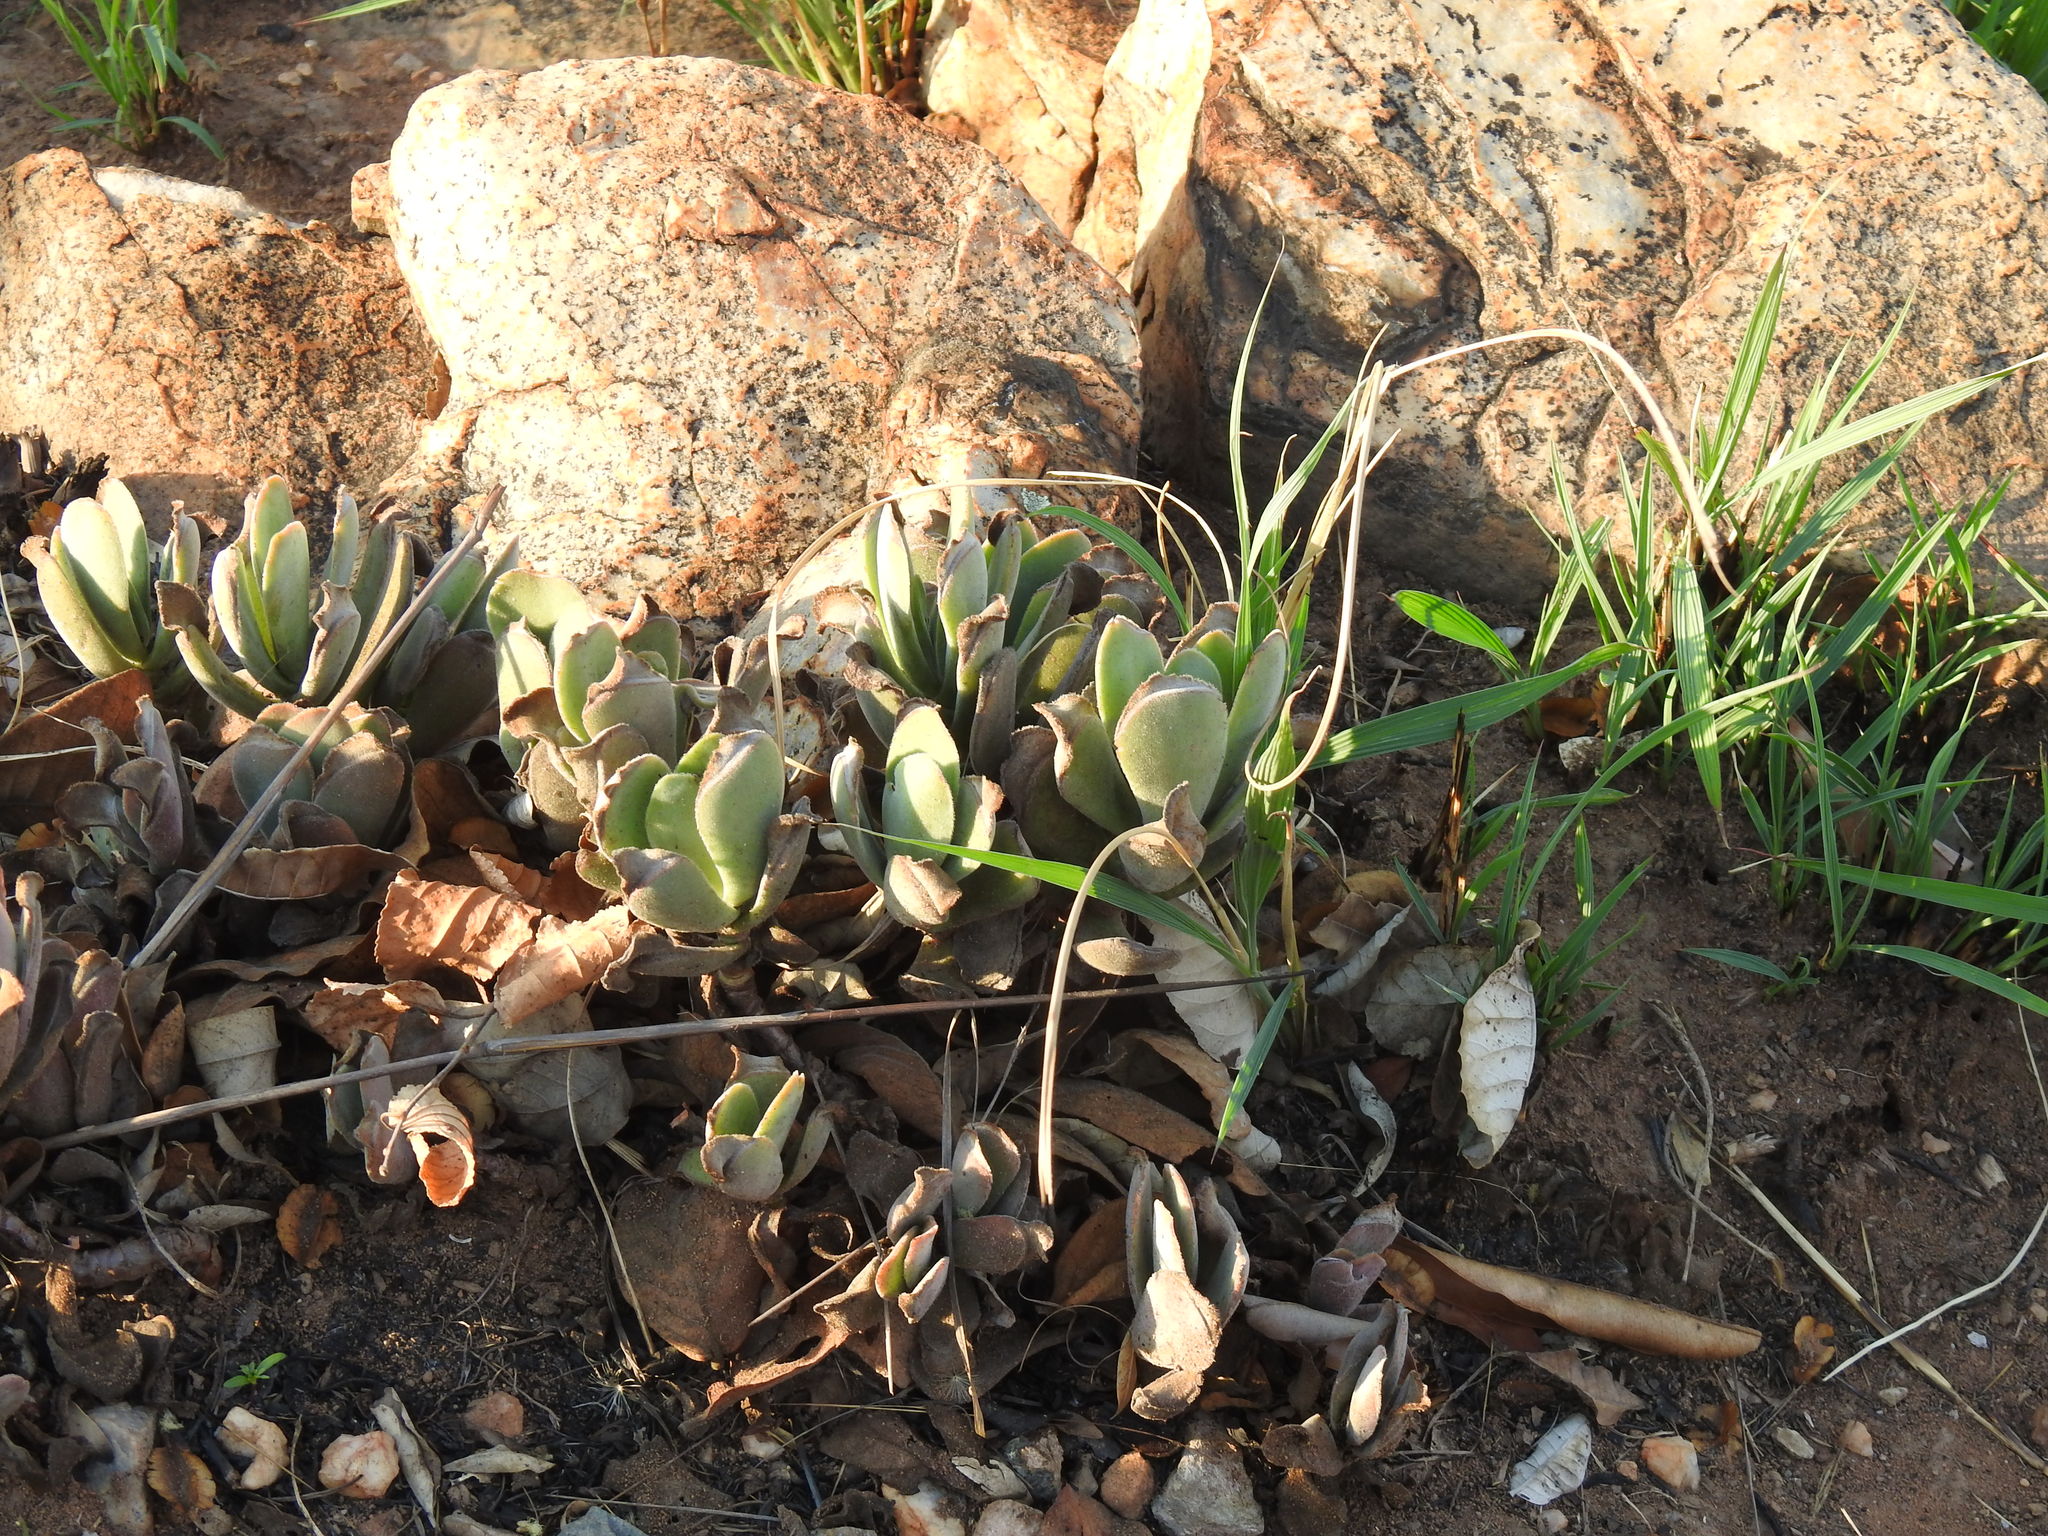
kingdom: Plantae
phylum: Tracheophyta
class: Magnoliopsida
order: Saxifragales
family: Crassulaceae
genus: Crassula
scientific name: Crassula globularioides
